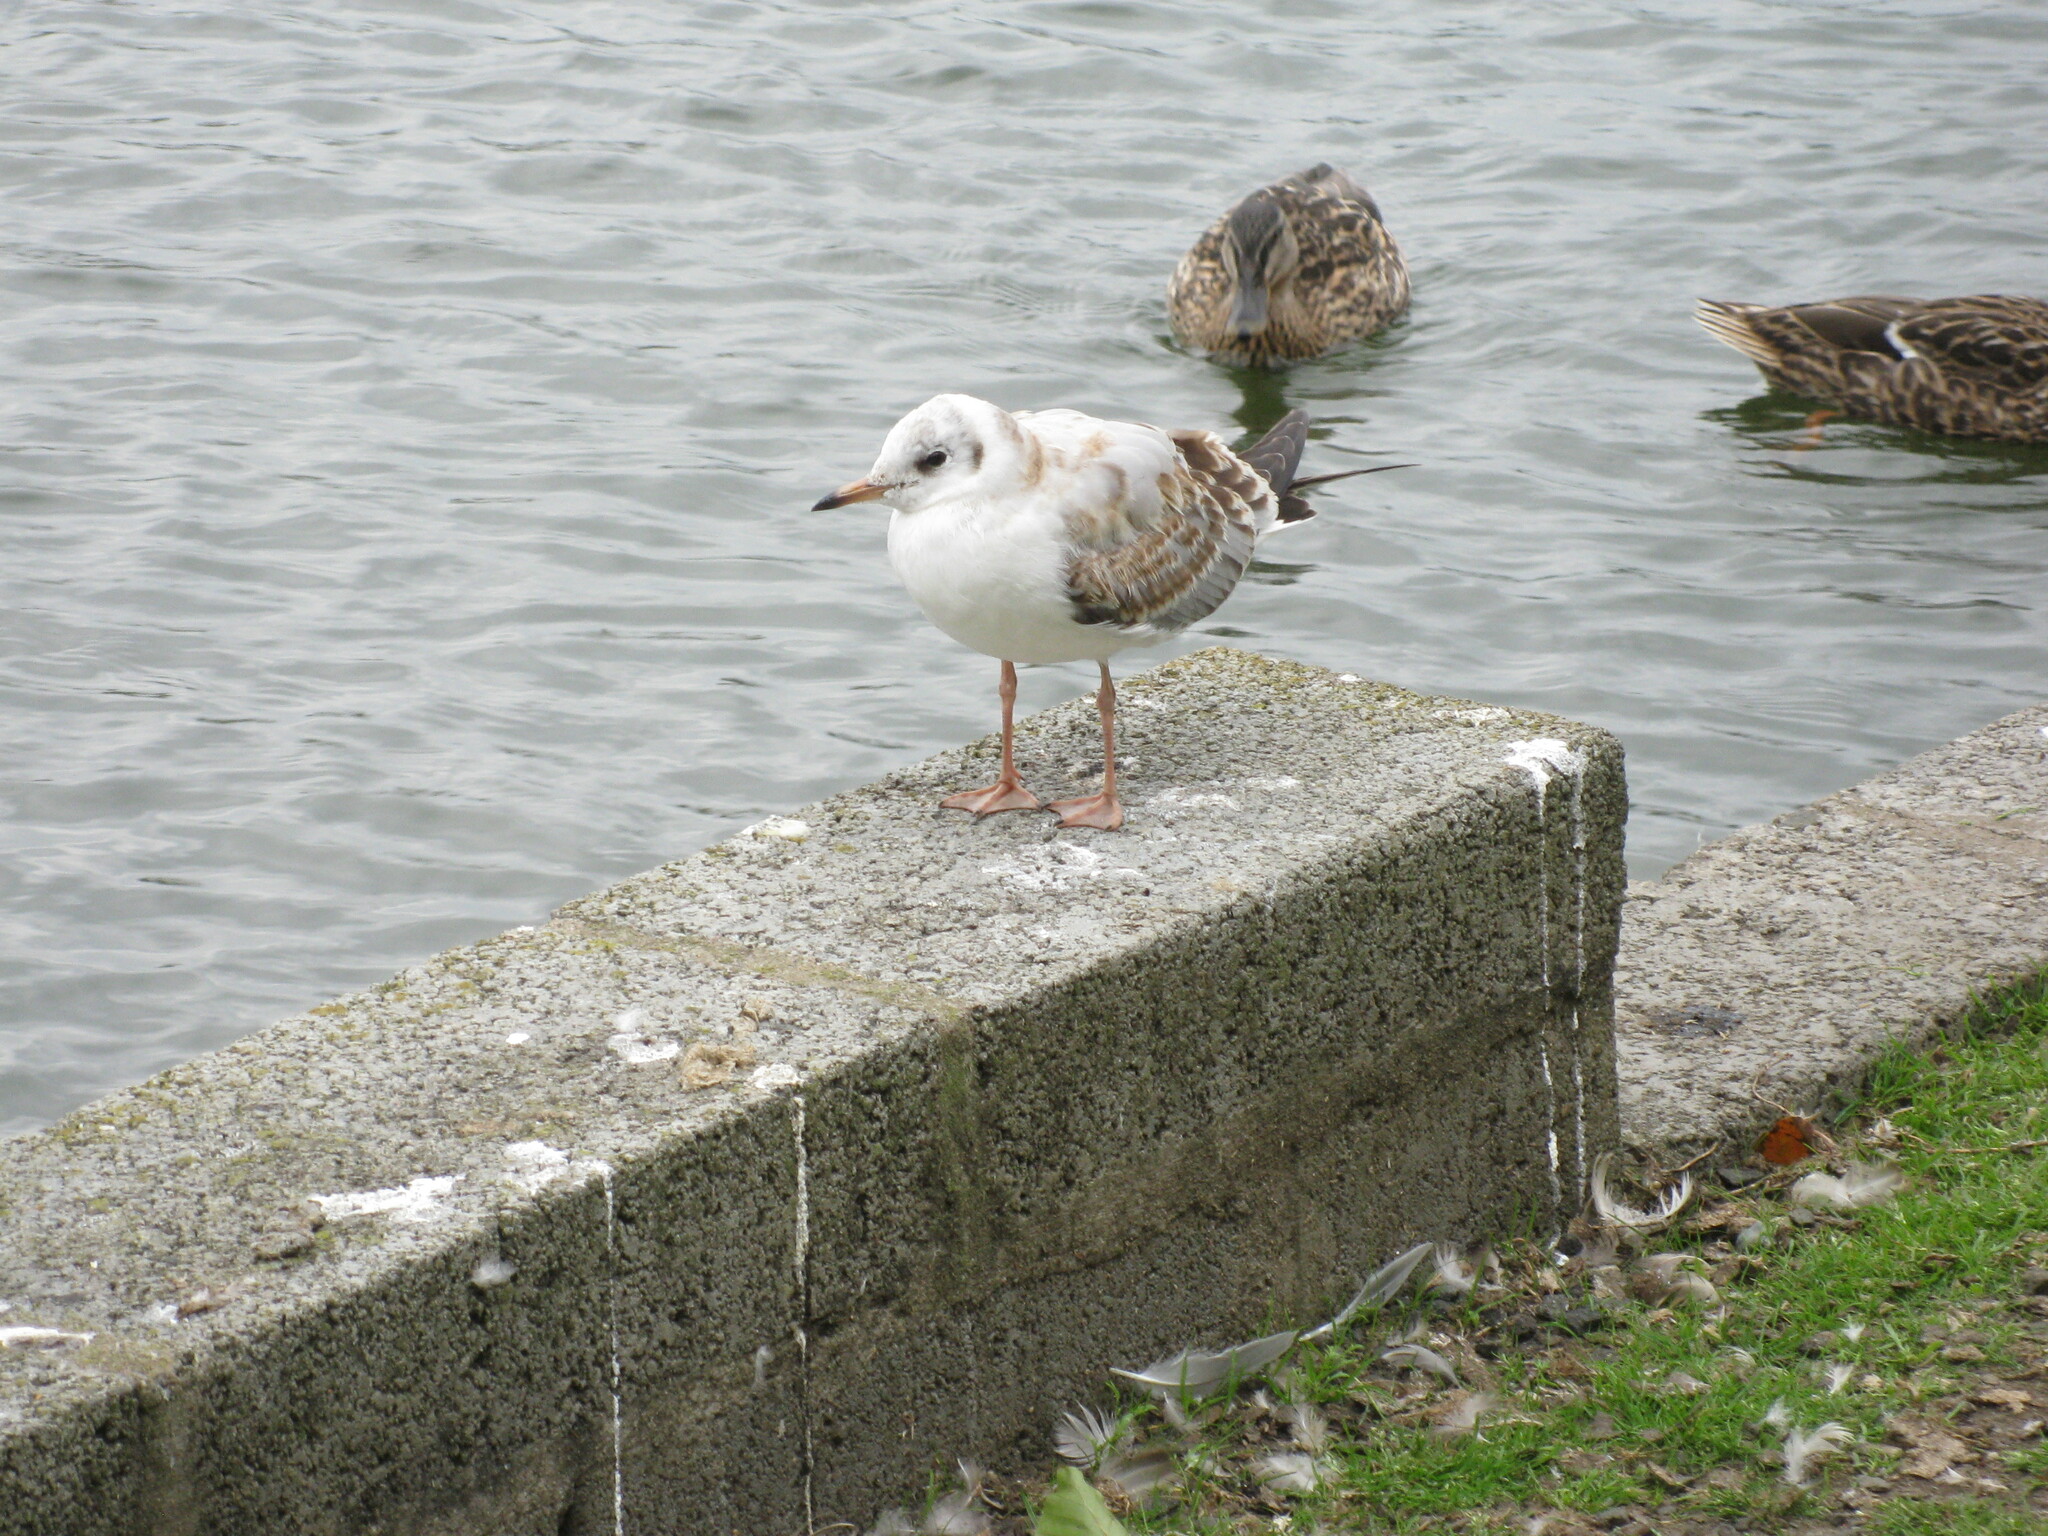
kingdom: Animalia
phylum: Chordata
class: Aves
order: Charadriiformes
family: Laridae
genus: Chroicocephalus
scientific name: Chroicocephalus ridibundus
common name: Black-headed gull
